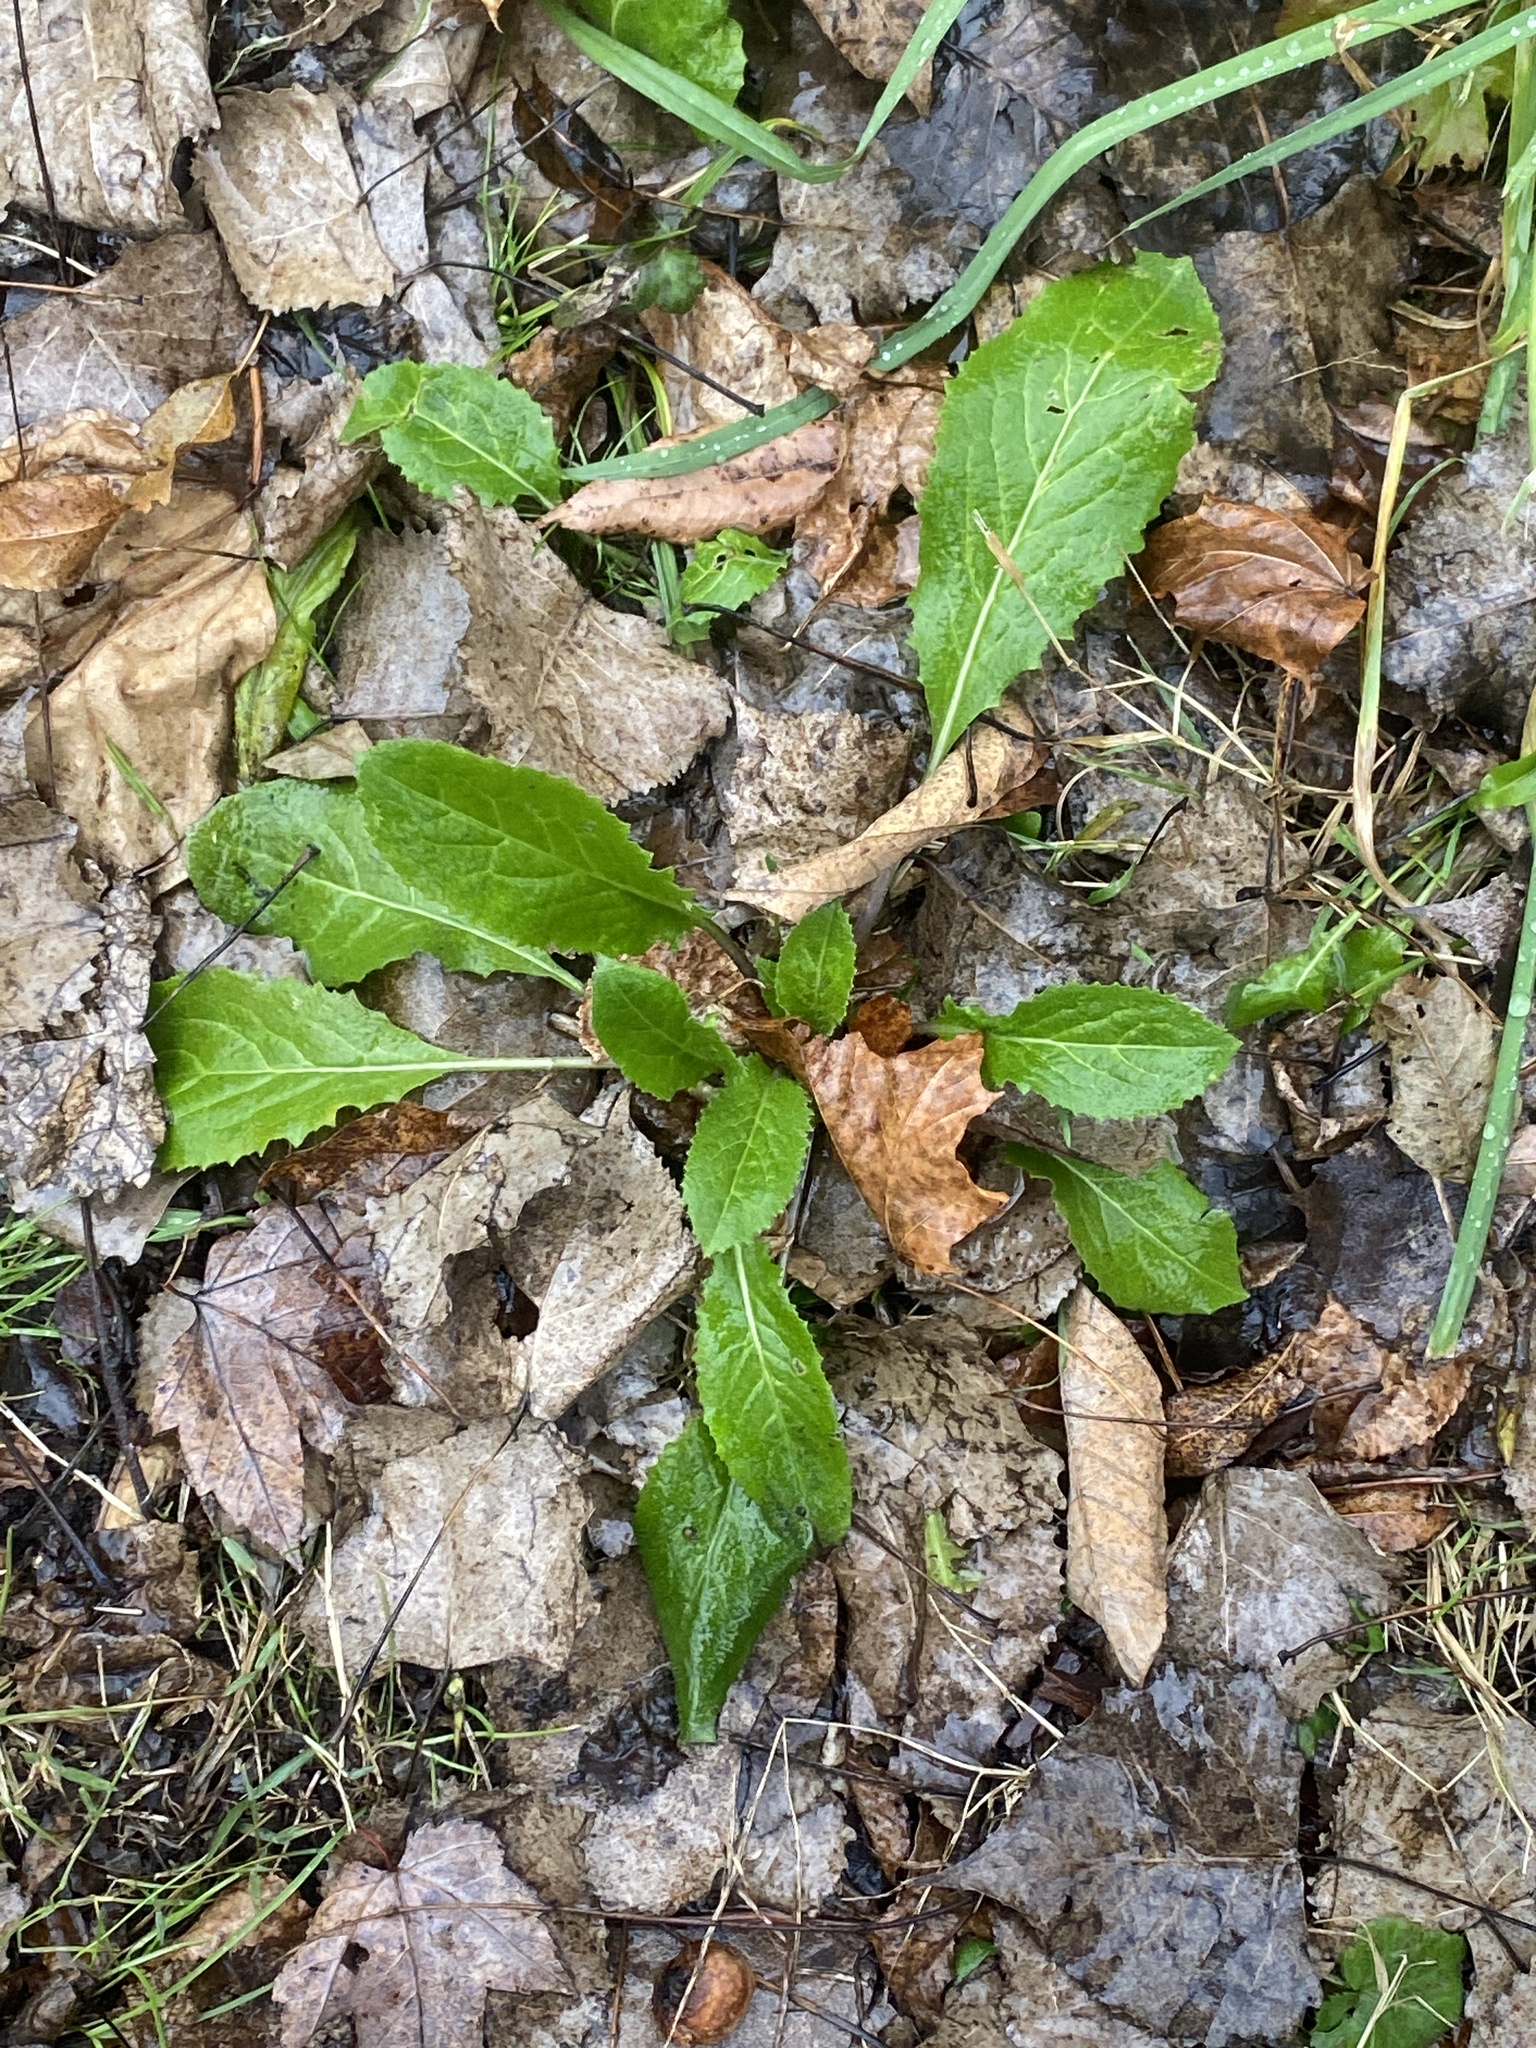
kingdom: Plantae
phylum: Tracheophyta
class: Magnoliopsida
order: Brassicales
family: Brassicaceae
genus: Hesperis
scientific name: Hesperis matronalis
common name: Dame's-violet
